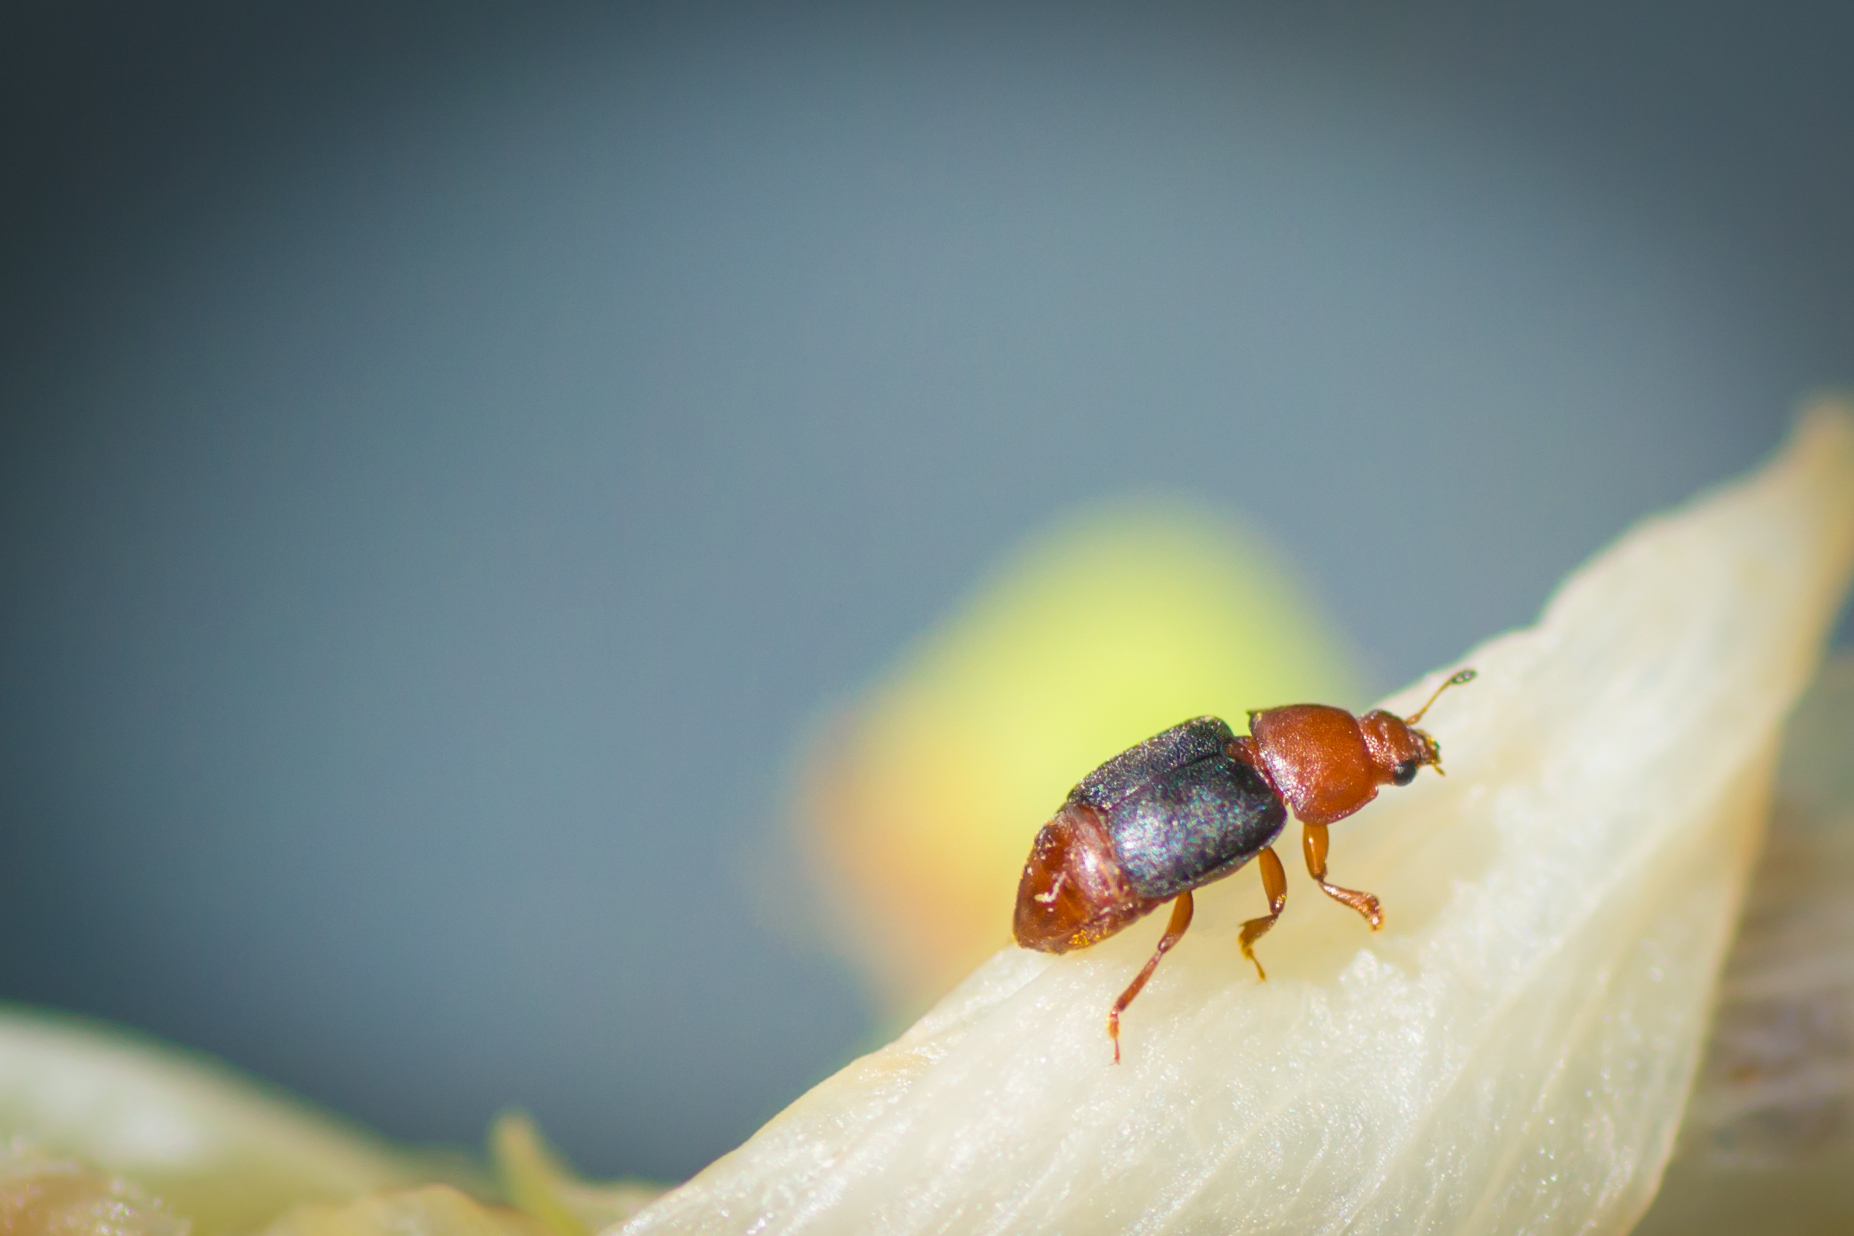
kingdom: Animalia
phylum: Arthropoda
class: Insecta
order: Coleoptera
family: Nitidulidae
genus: Carpophilus
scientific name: Carpophilus
